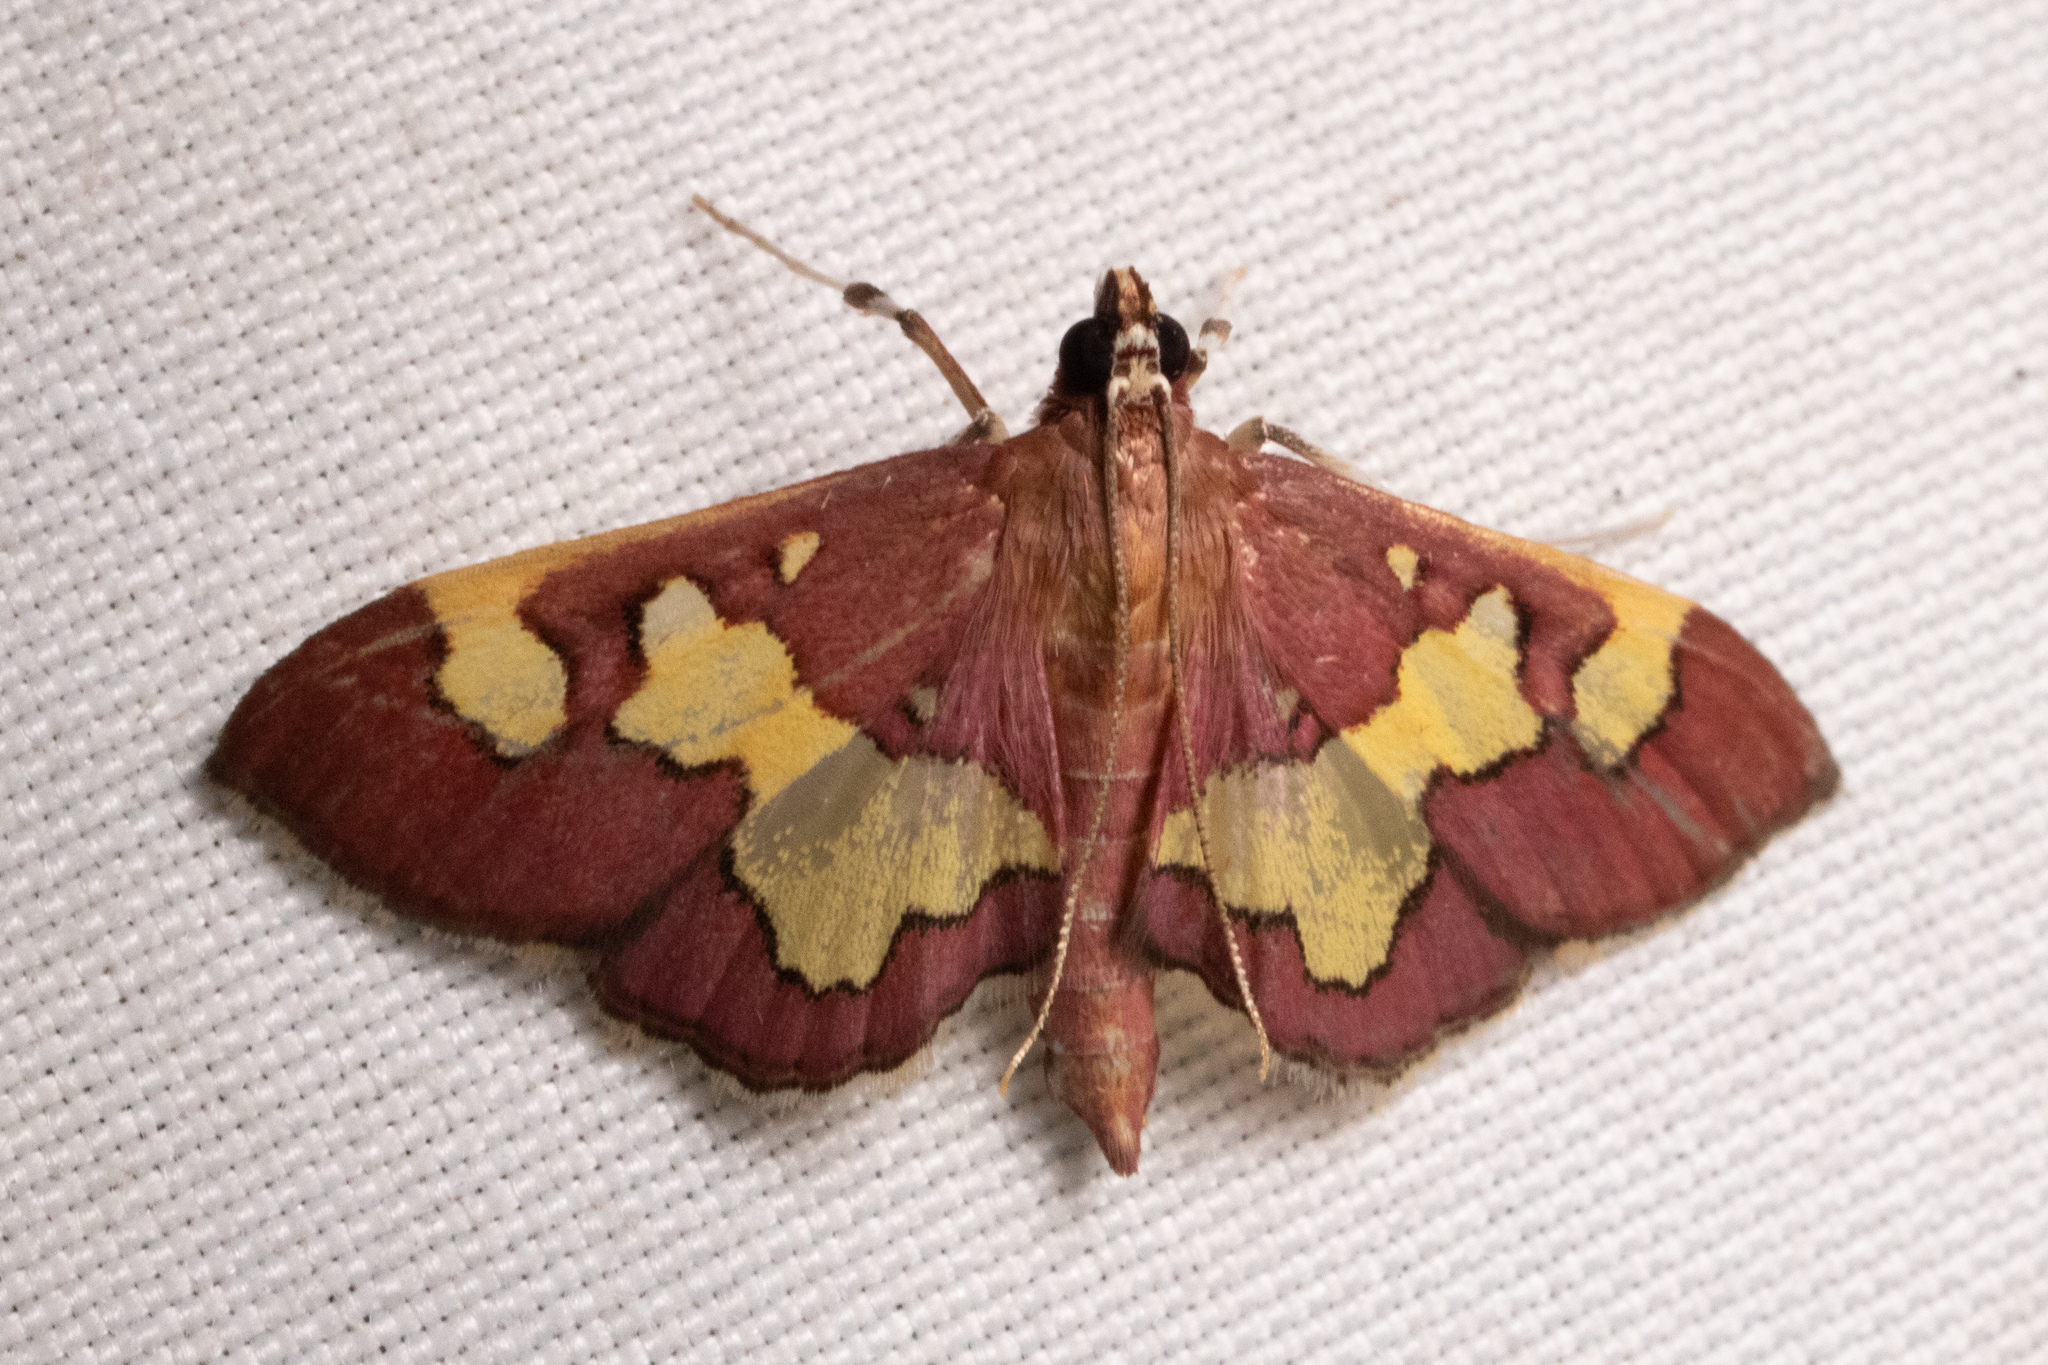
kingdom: Animalia
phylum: Arthropoda
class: Insecta
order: Lepidoptera
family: Crambidae
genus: Colomychus
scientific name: Colomychus talis
